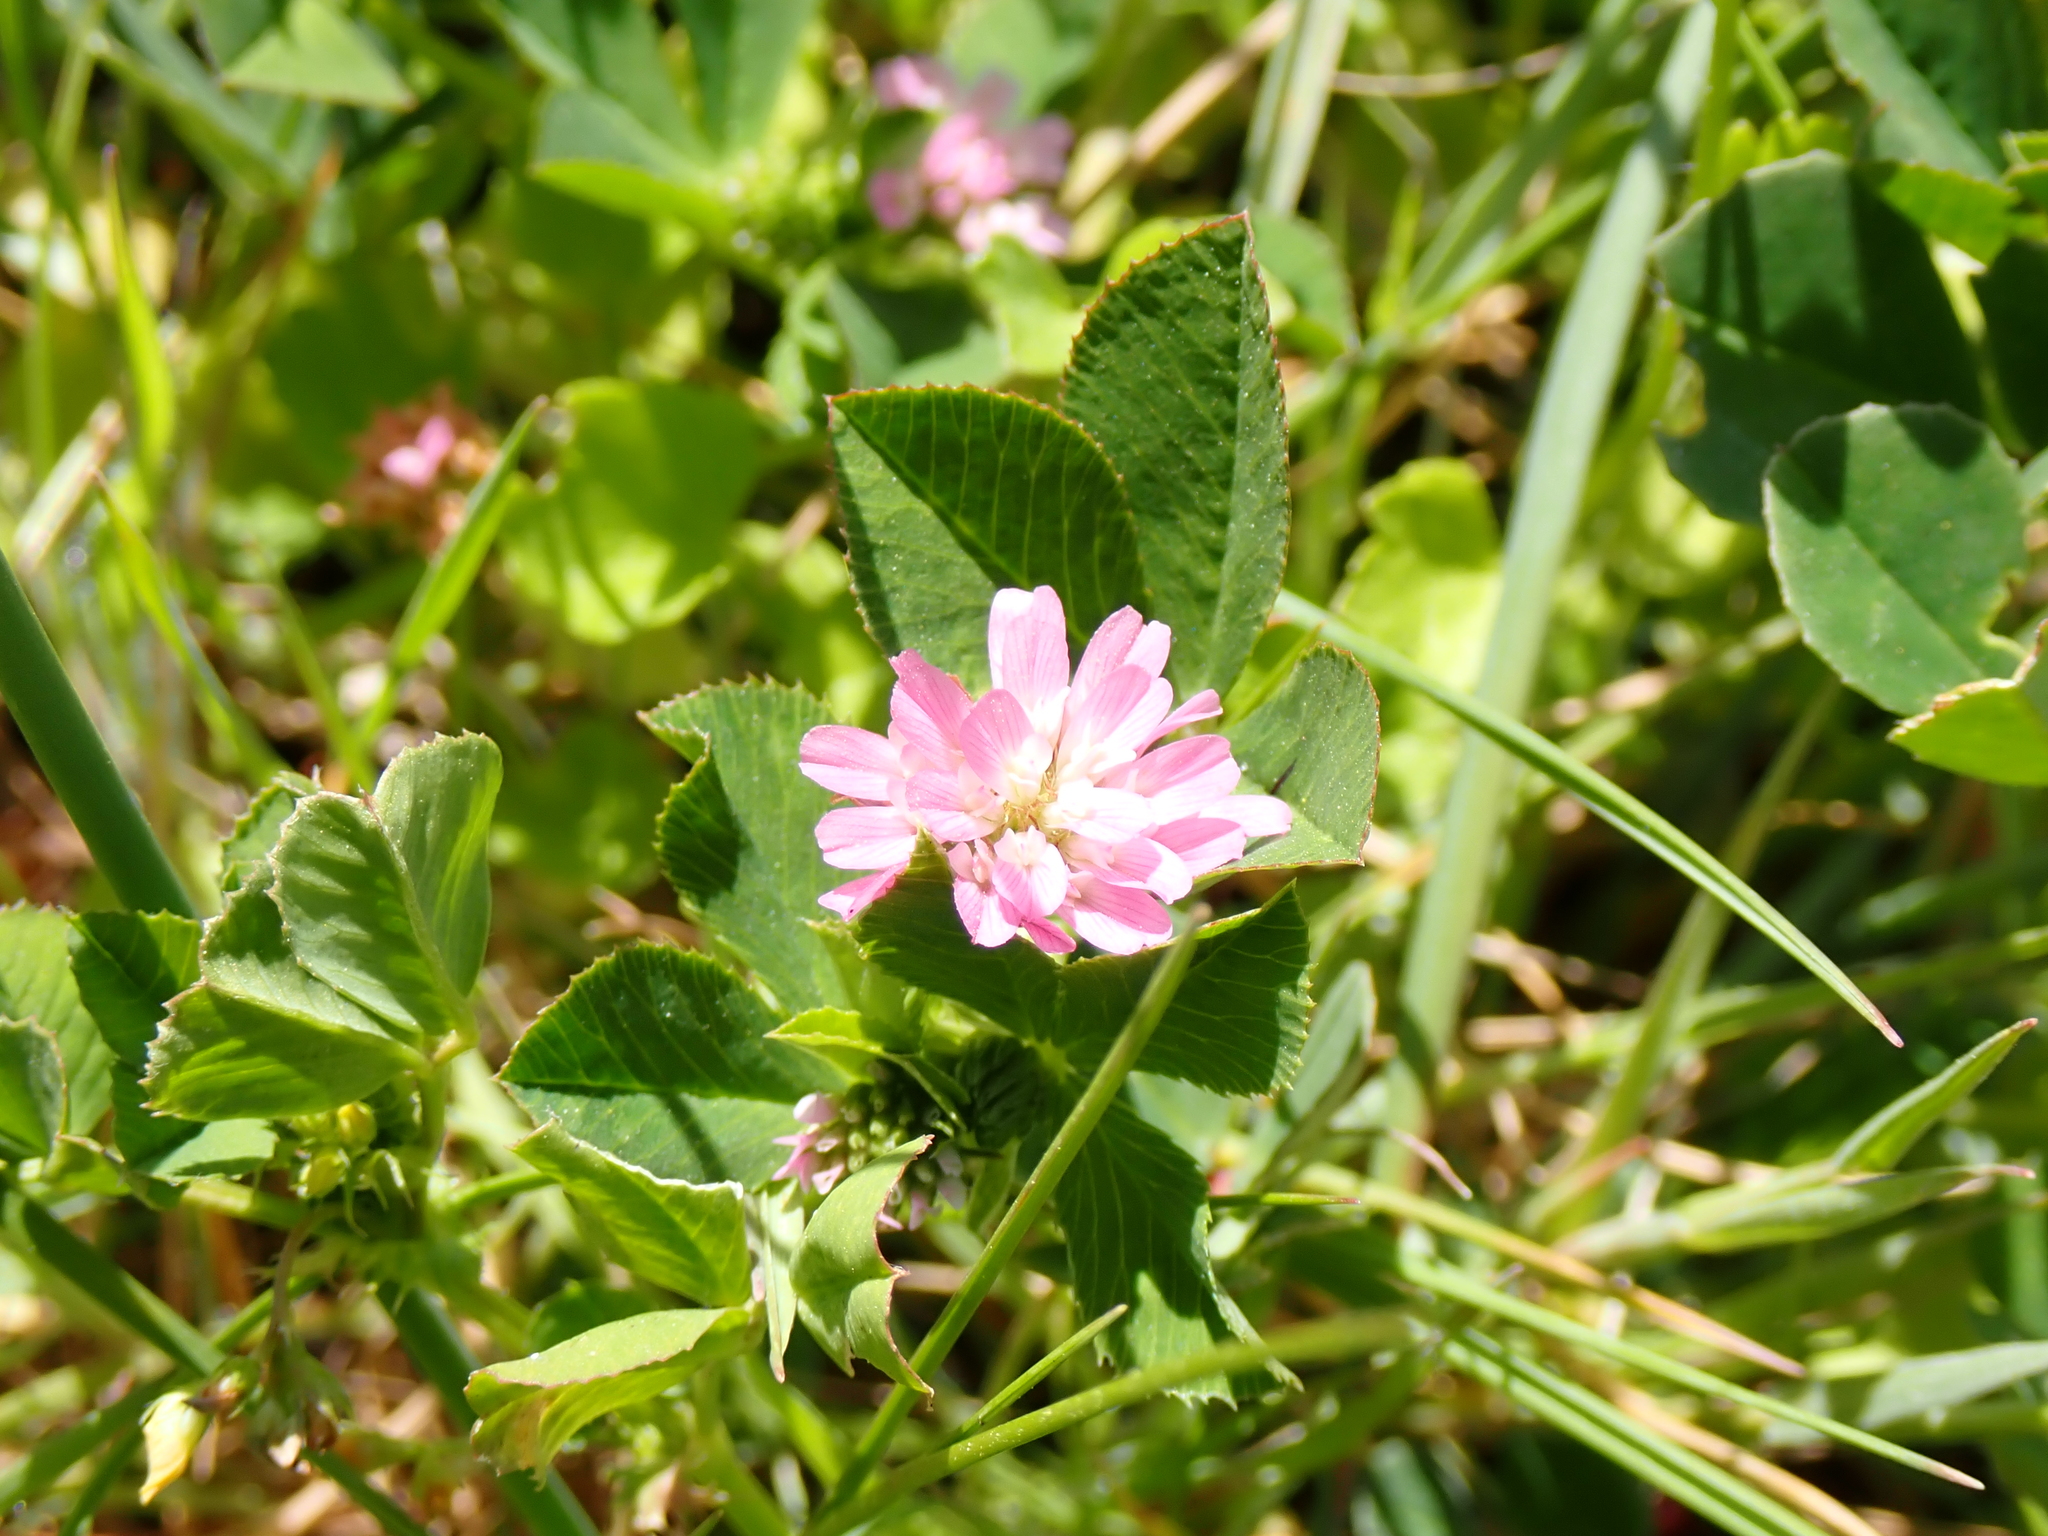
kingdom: Plantae
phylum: Tracheophyta
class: Magnoliopsida
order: Fabales
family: Fabaceae
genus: Trifolium
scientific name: Trifolium resupinatum
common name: Reversed clover
